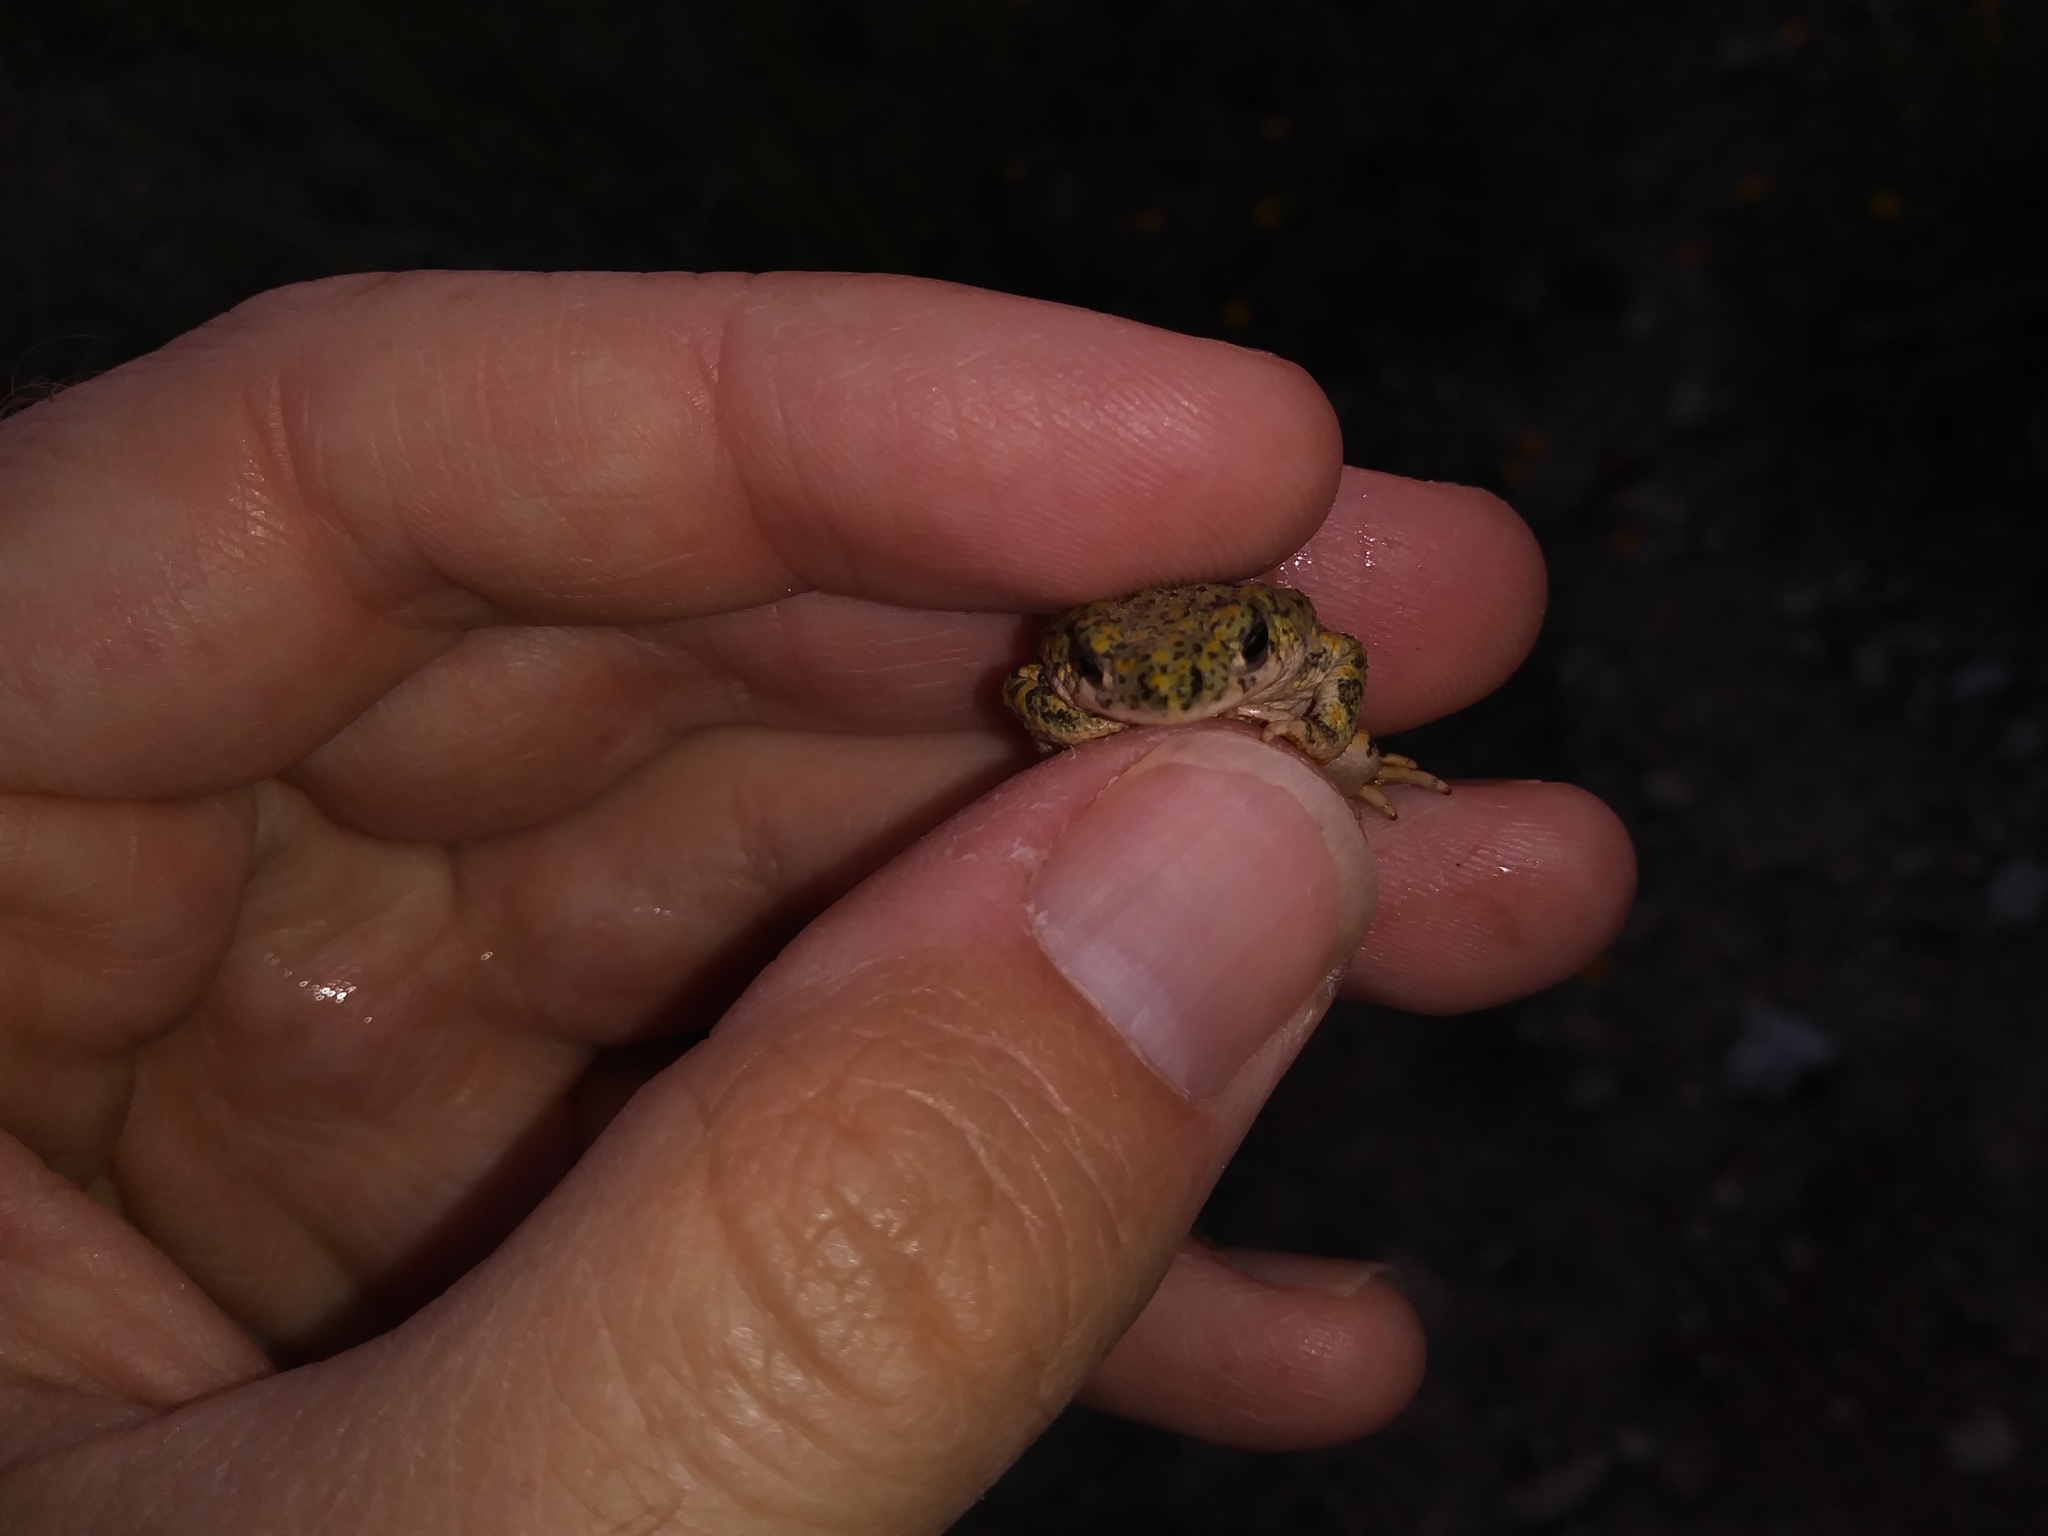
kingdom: Animalia
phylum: Chordata
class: Amphibia
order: Anura
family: Bufonidae
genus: Anaxyrus
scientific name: Anaxyrus debilis
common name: Green toad
